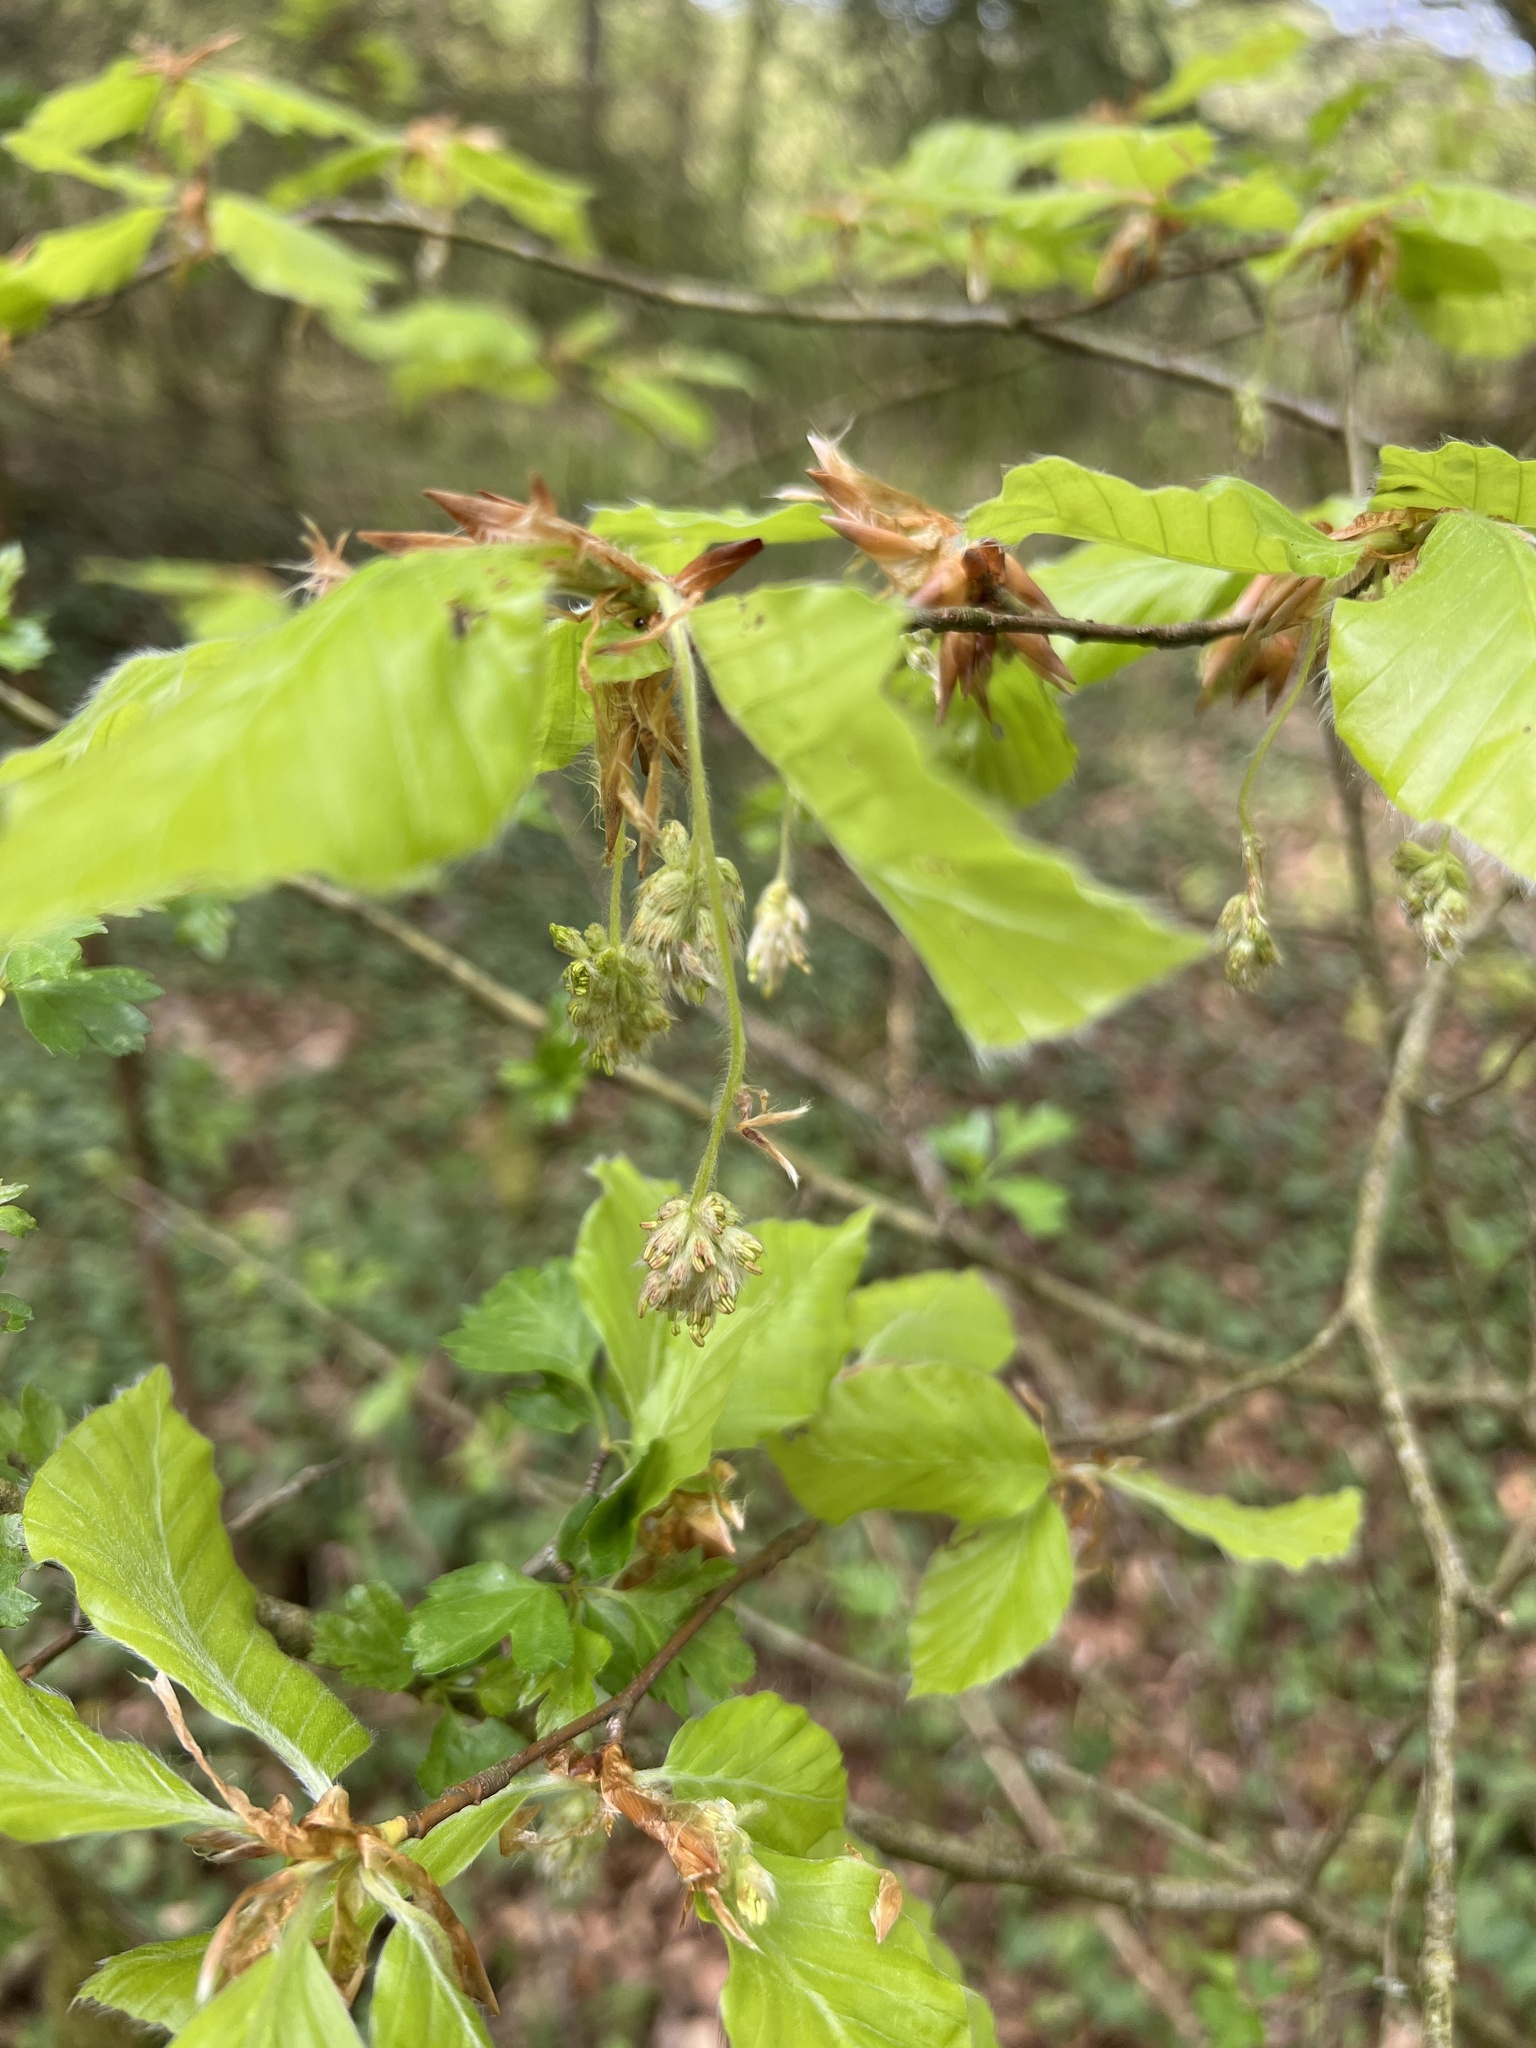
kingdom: Plantae
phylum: Tracheophyta
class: Magnoliopsida
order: Fagales
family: Fagaceae
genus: Fagus
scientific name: Fagus sylvatica
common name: Beech
